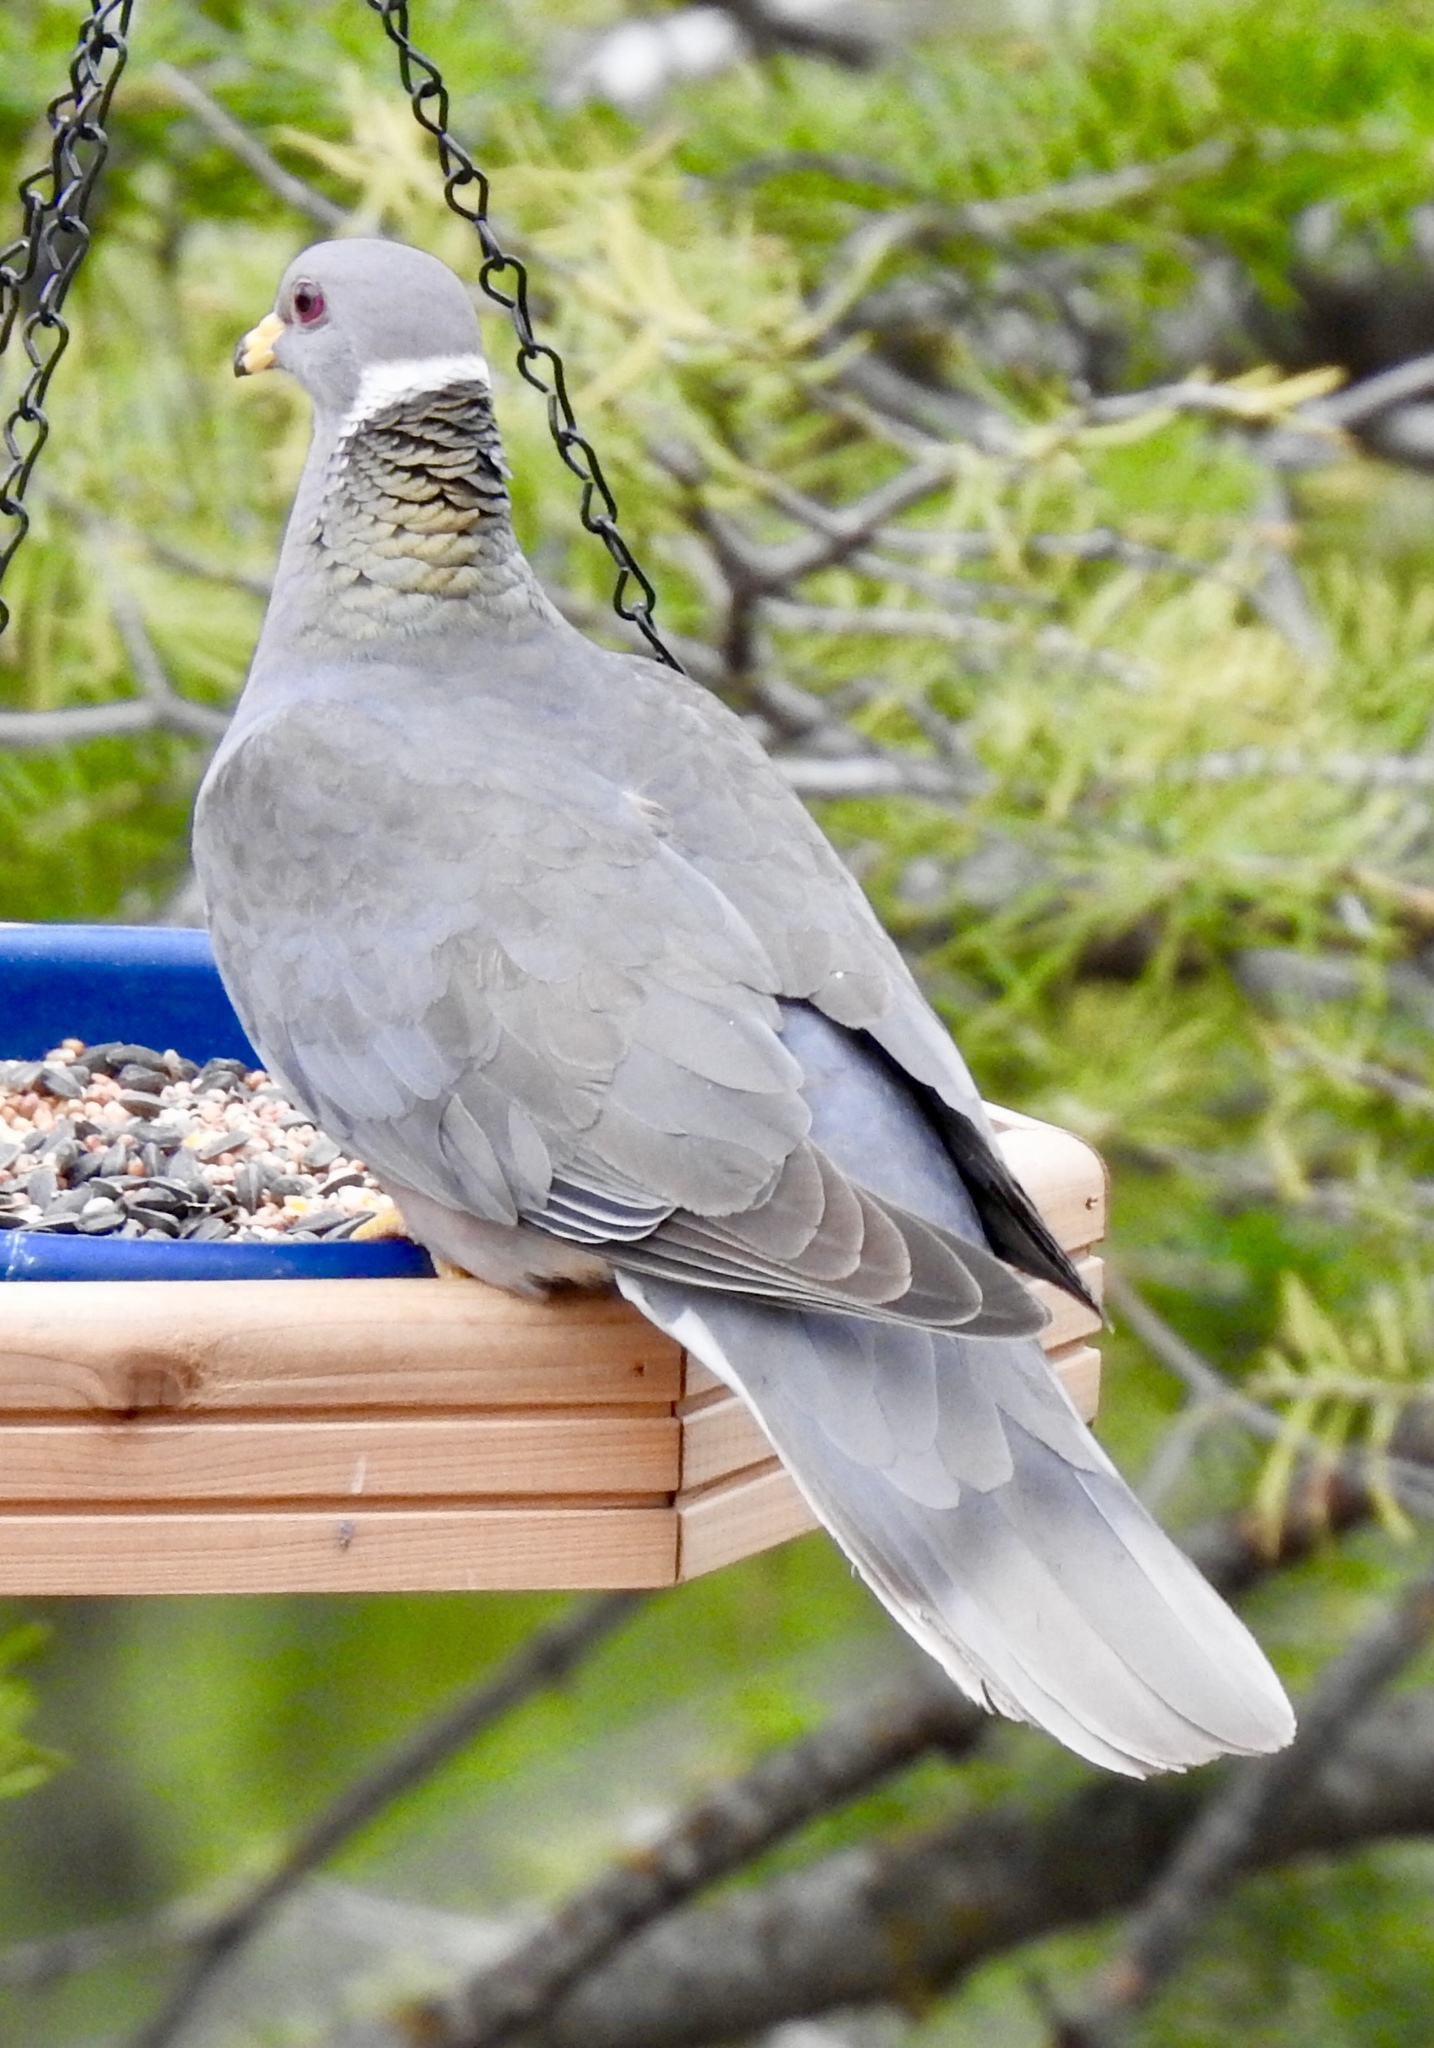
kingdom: Animalia
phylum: Chordata
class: Aves
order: Columbiformes
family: Columbidae
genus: Patagioenas
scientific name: Patagioenas fasciata
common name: Band-tailed pigeon
